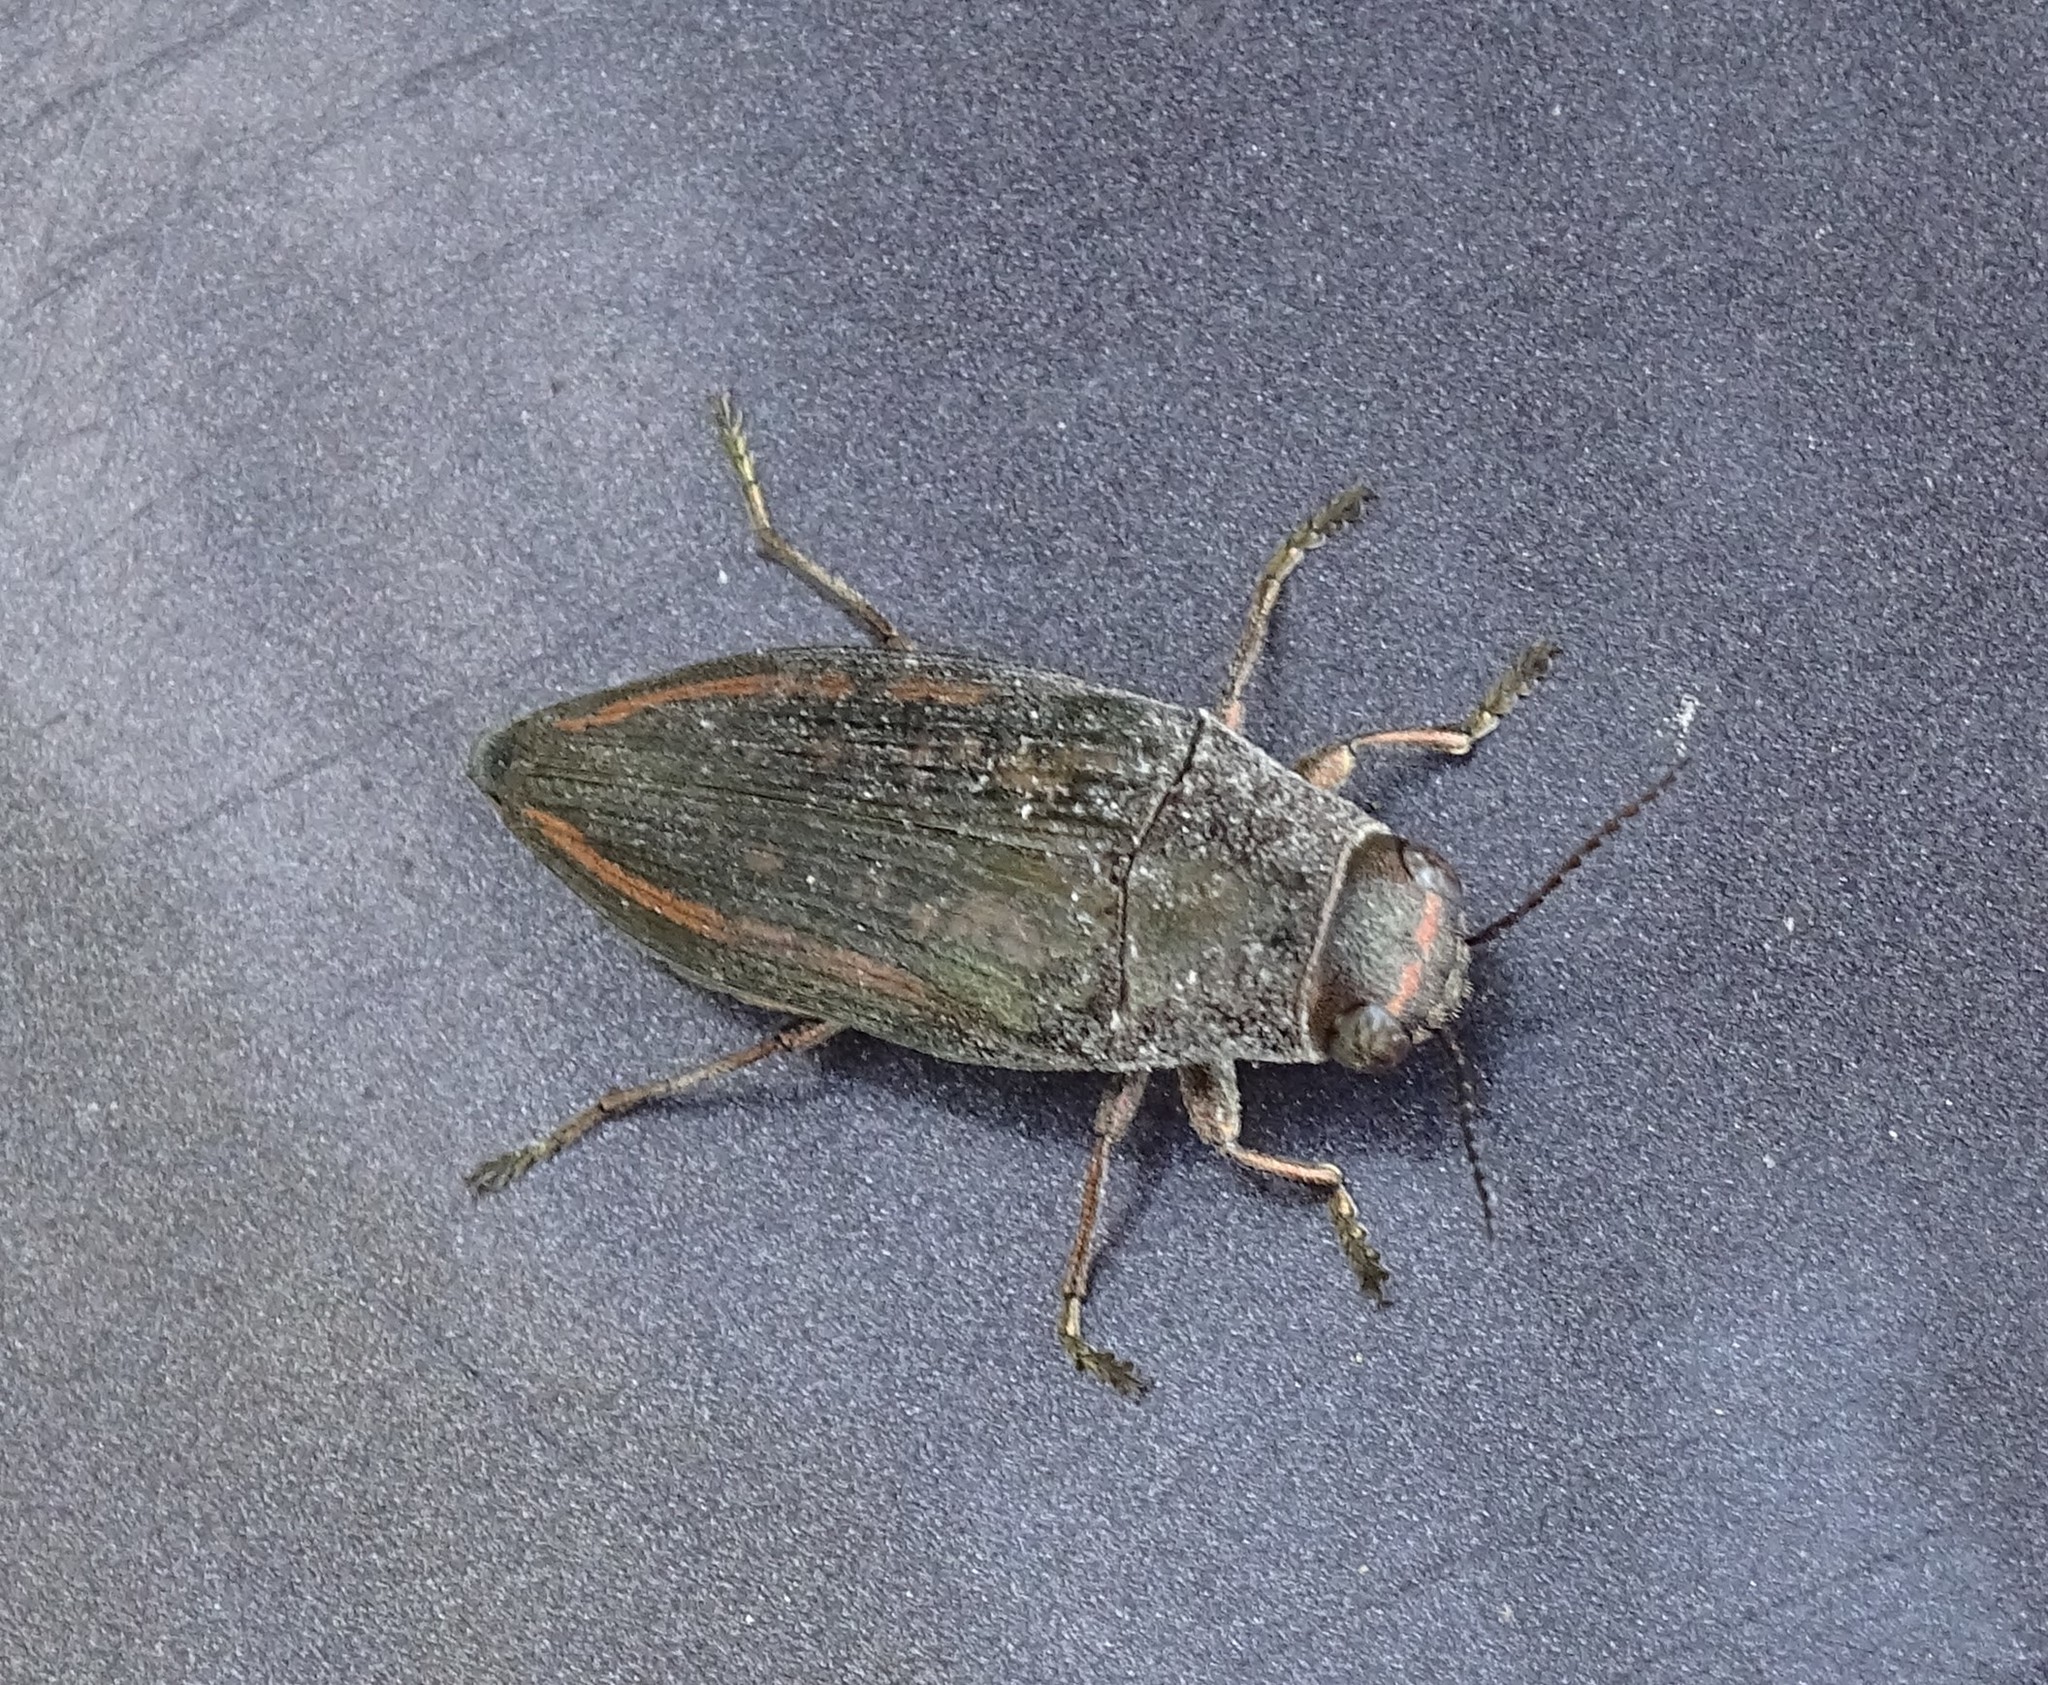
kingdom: Animalia
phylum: Arthropoda
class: Insecta
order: Coleoptera
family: Buprestidae
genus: Buprestis
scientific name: Buprestis lineata
